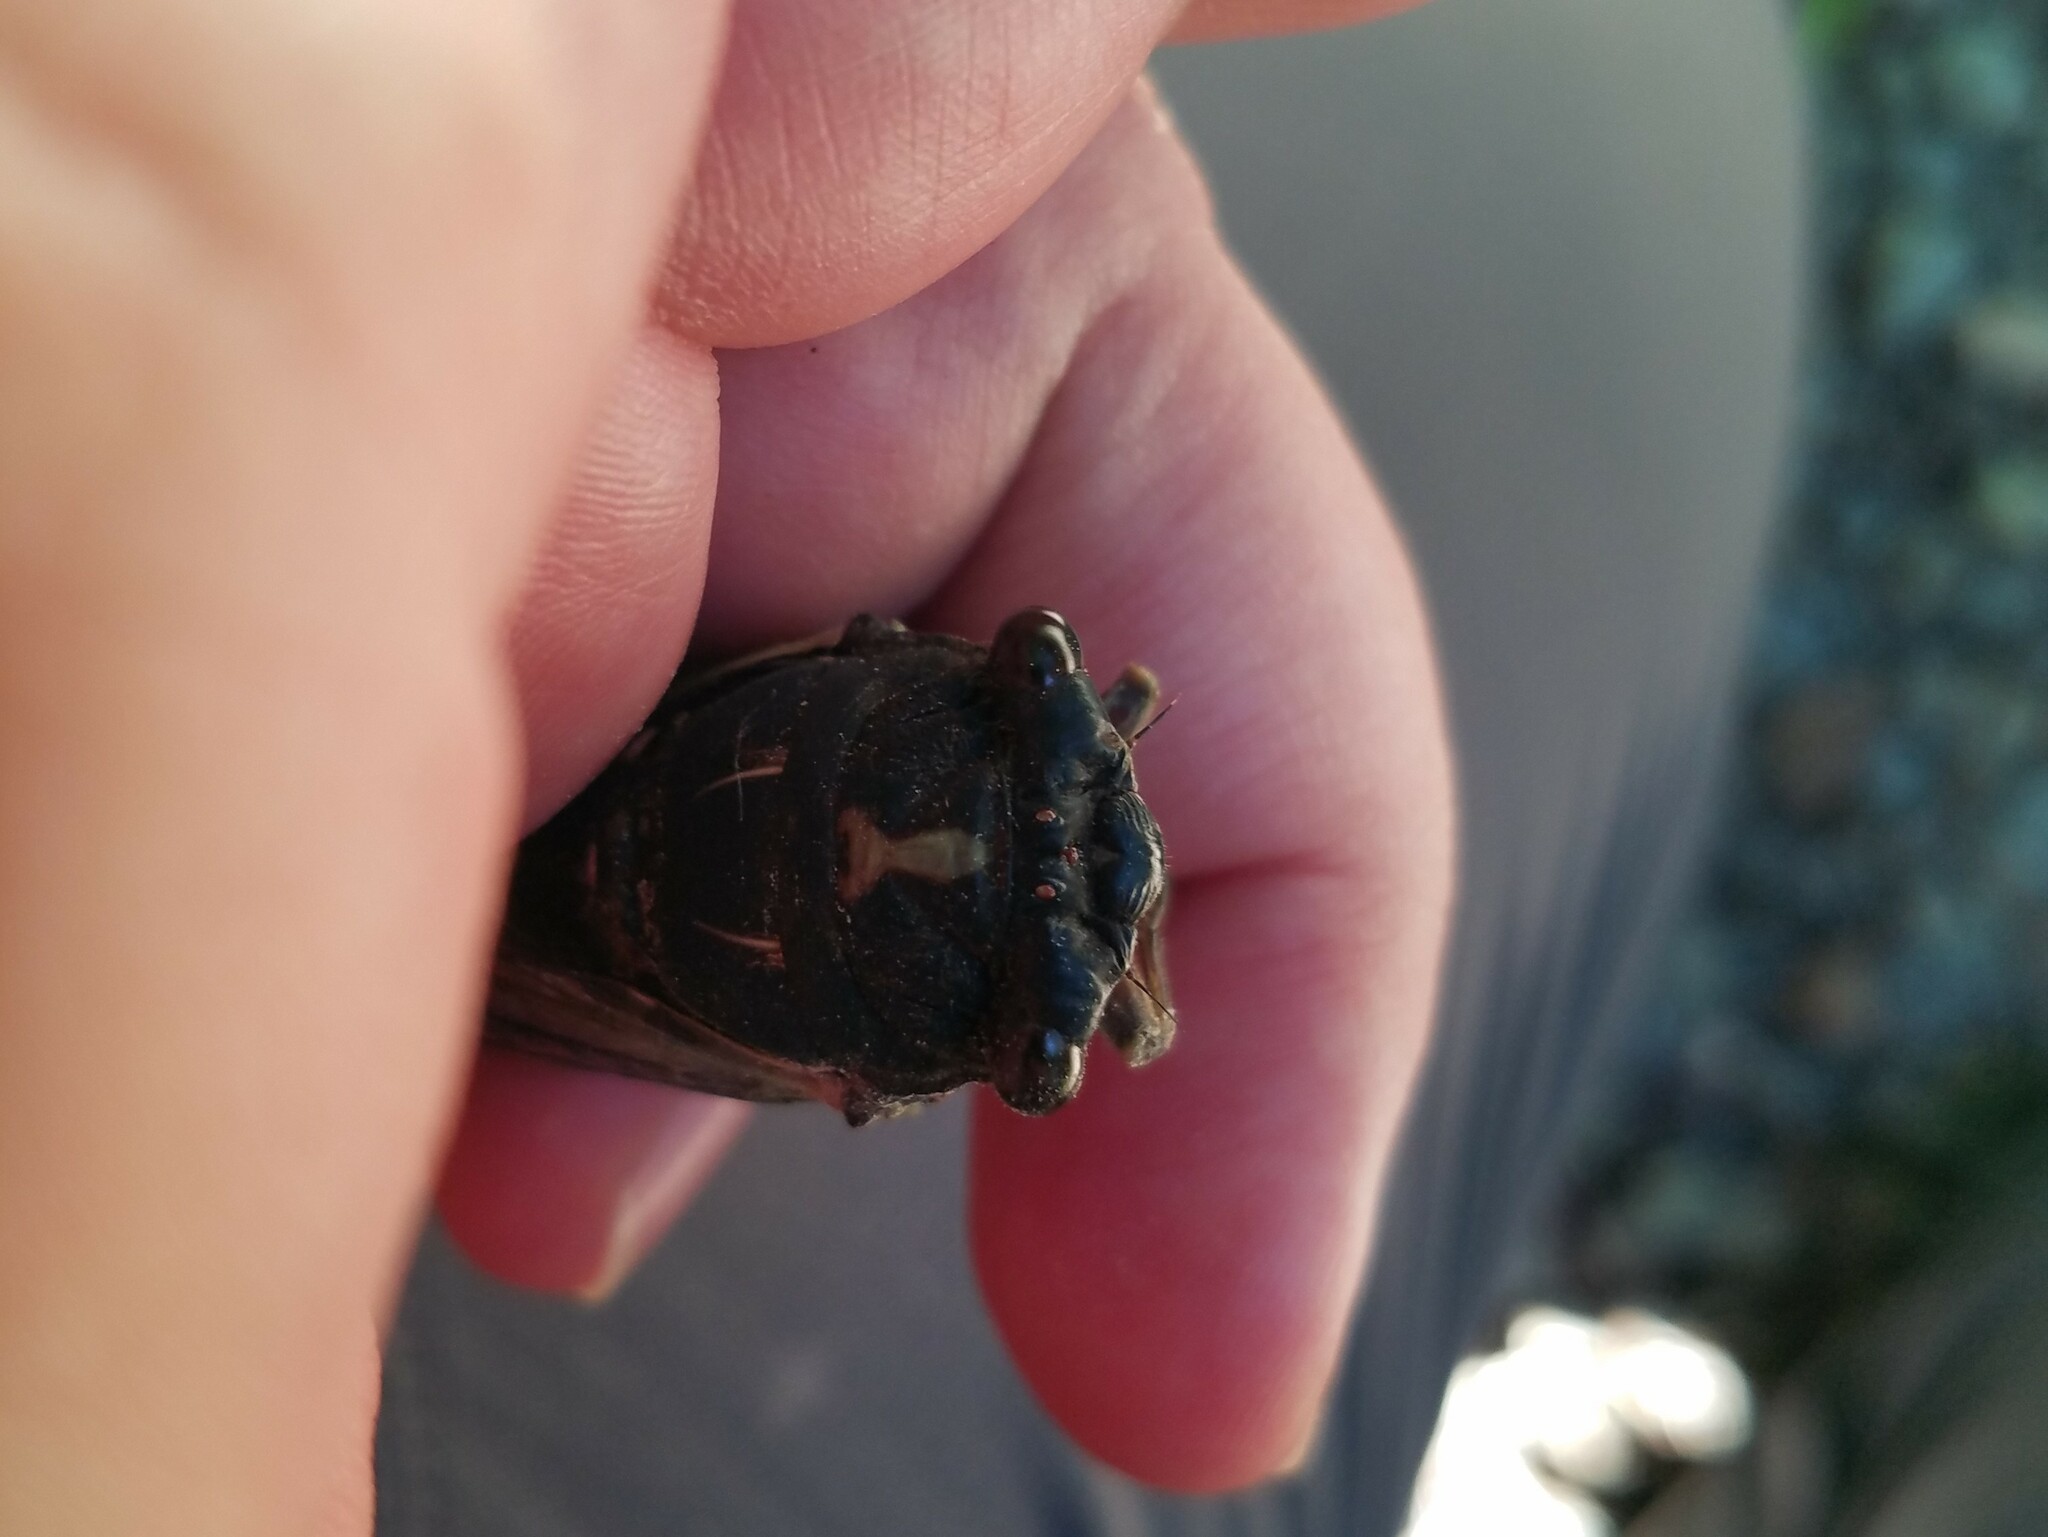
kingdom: Animalia
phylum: Arthropoda
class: Insecta
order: Hemiptera
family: Cicadidae
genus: Neotibicen
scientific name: Neotibicen lyricen
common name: Lyric cicada
